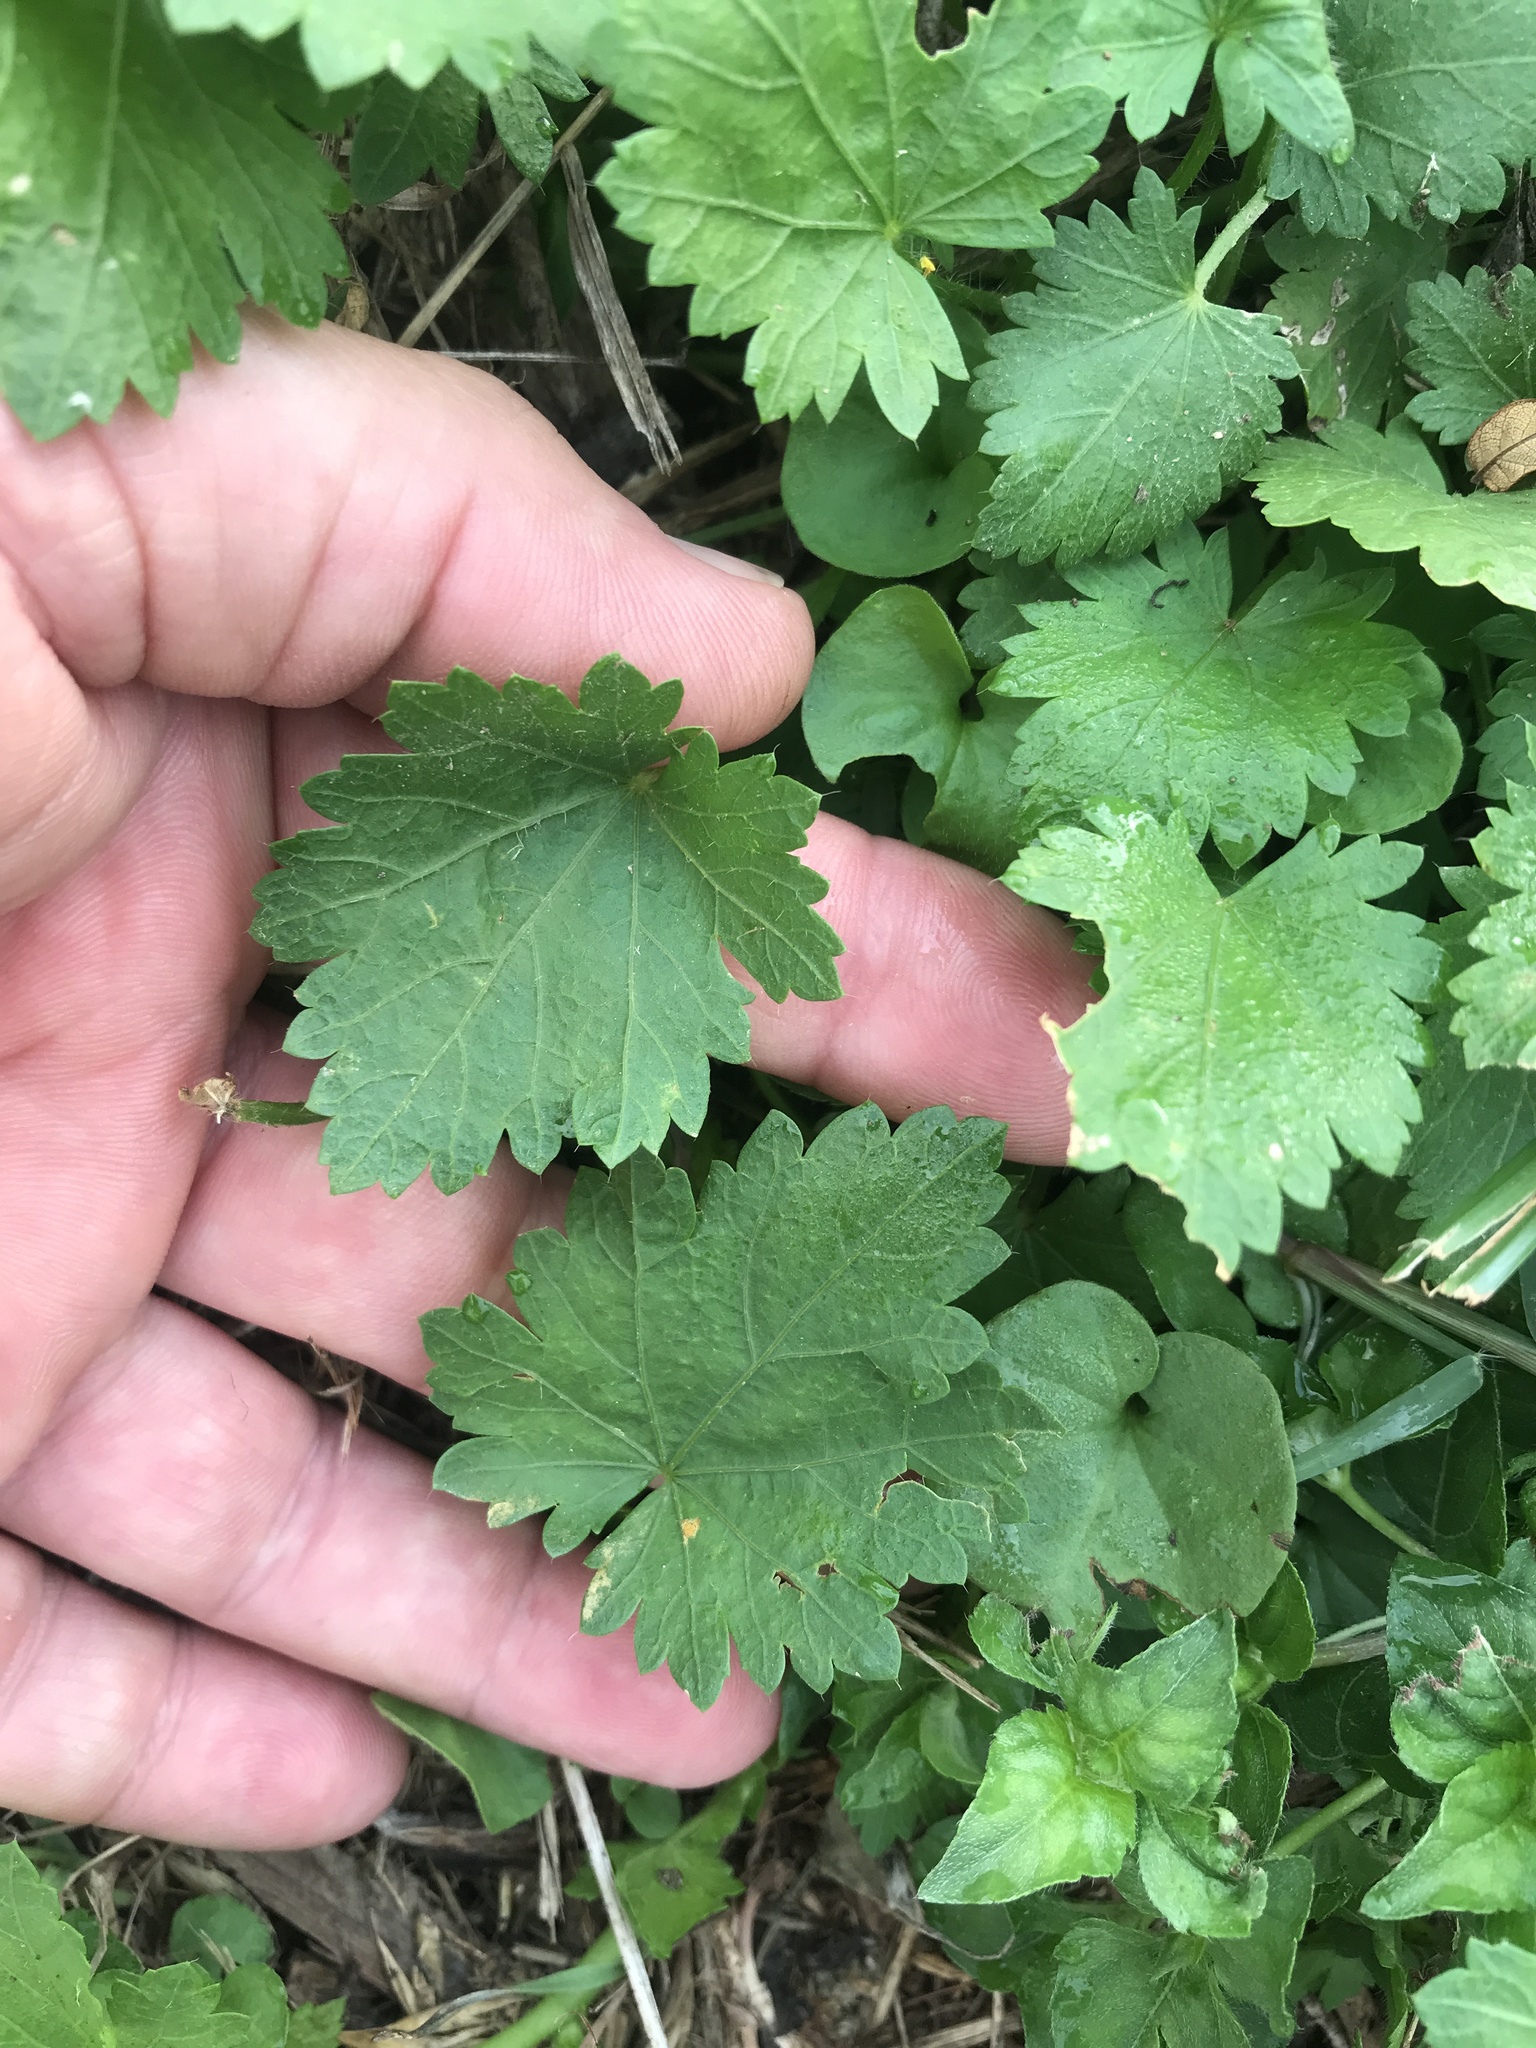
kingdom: Plantae
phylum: Tracheophyta
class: Magnoliopsida
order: Malvales
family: Malvaceae
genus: Modiola
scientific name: Modiola caroliniana
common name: Carolina bristlemallow
